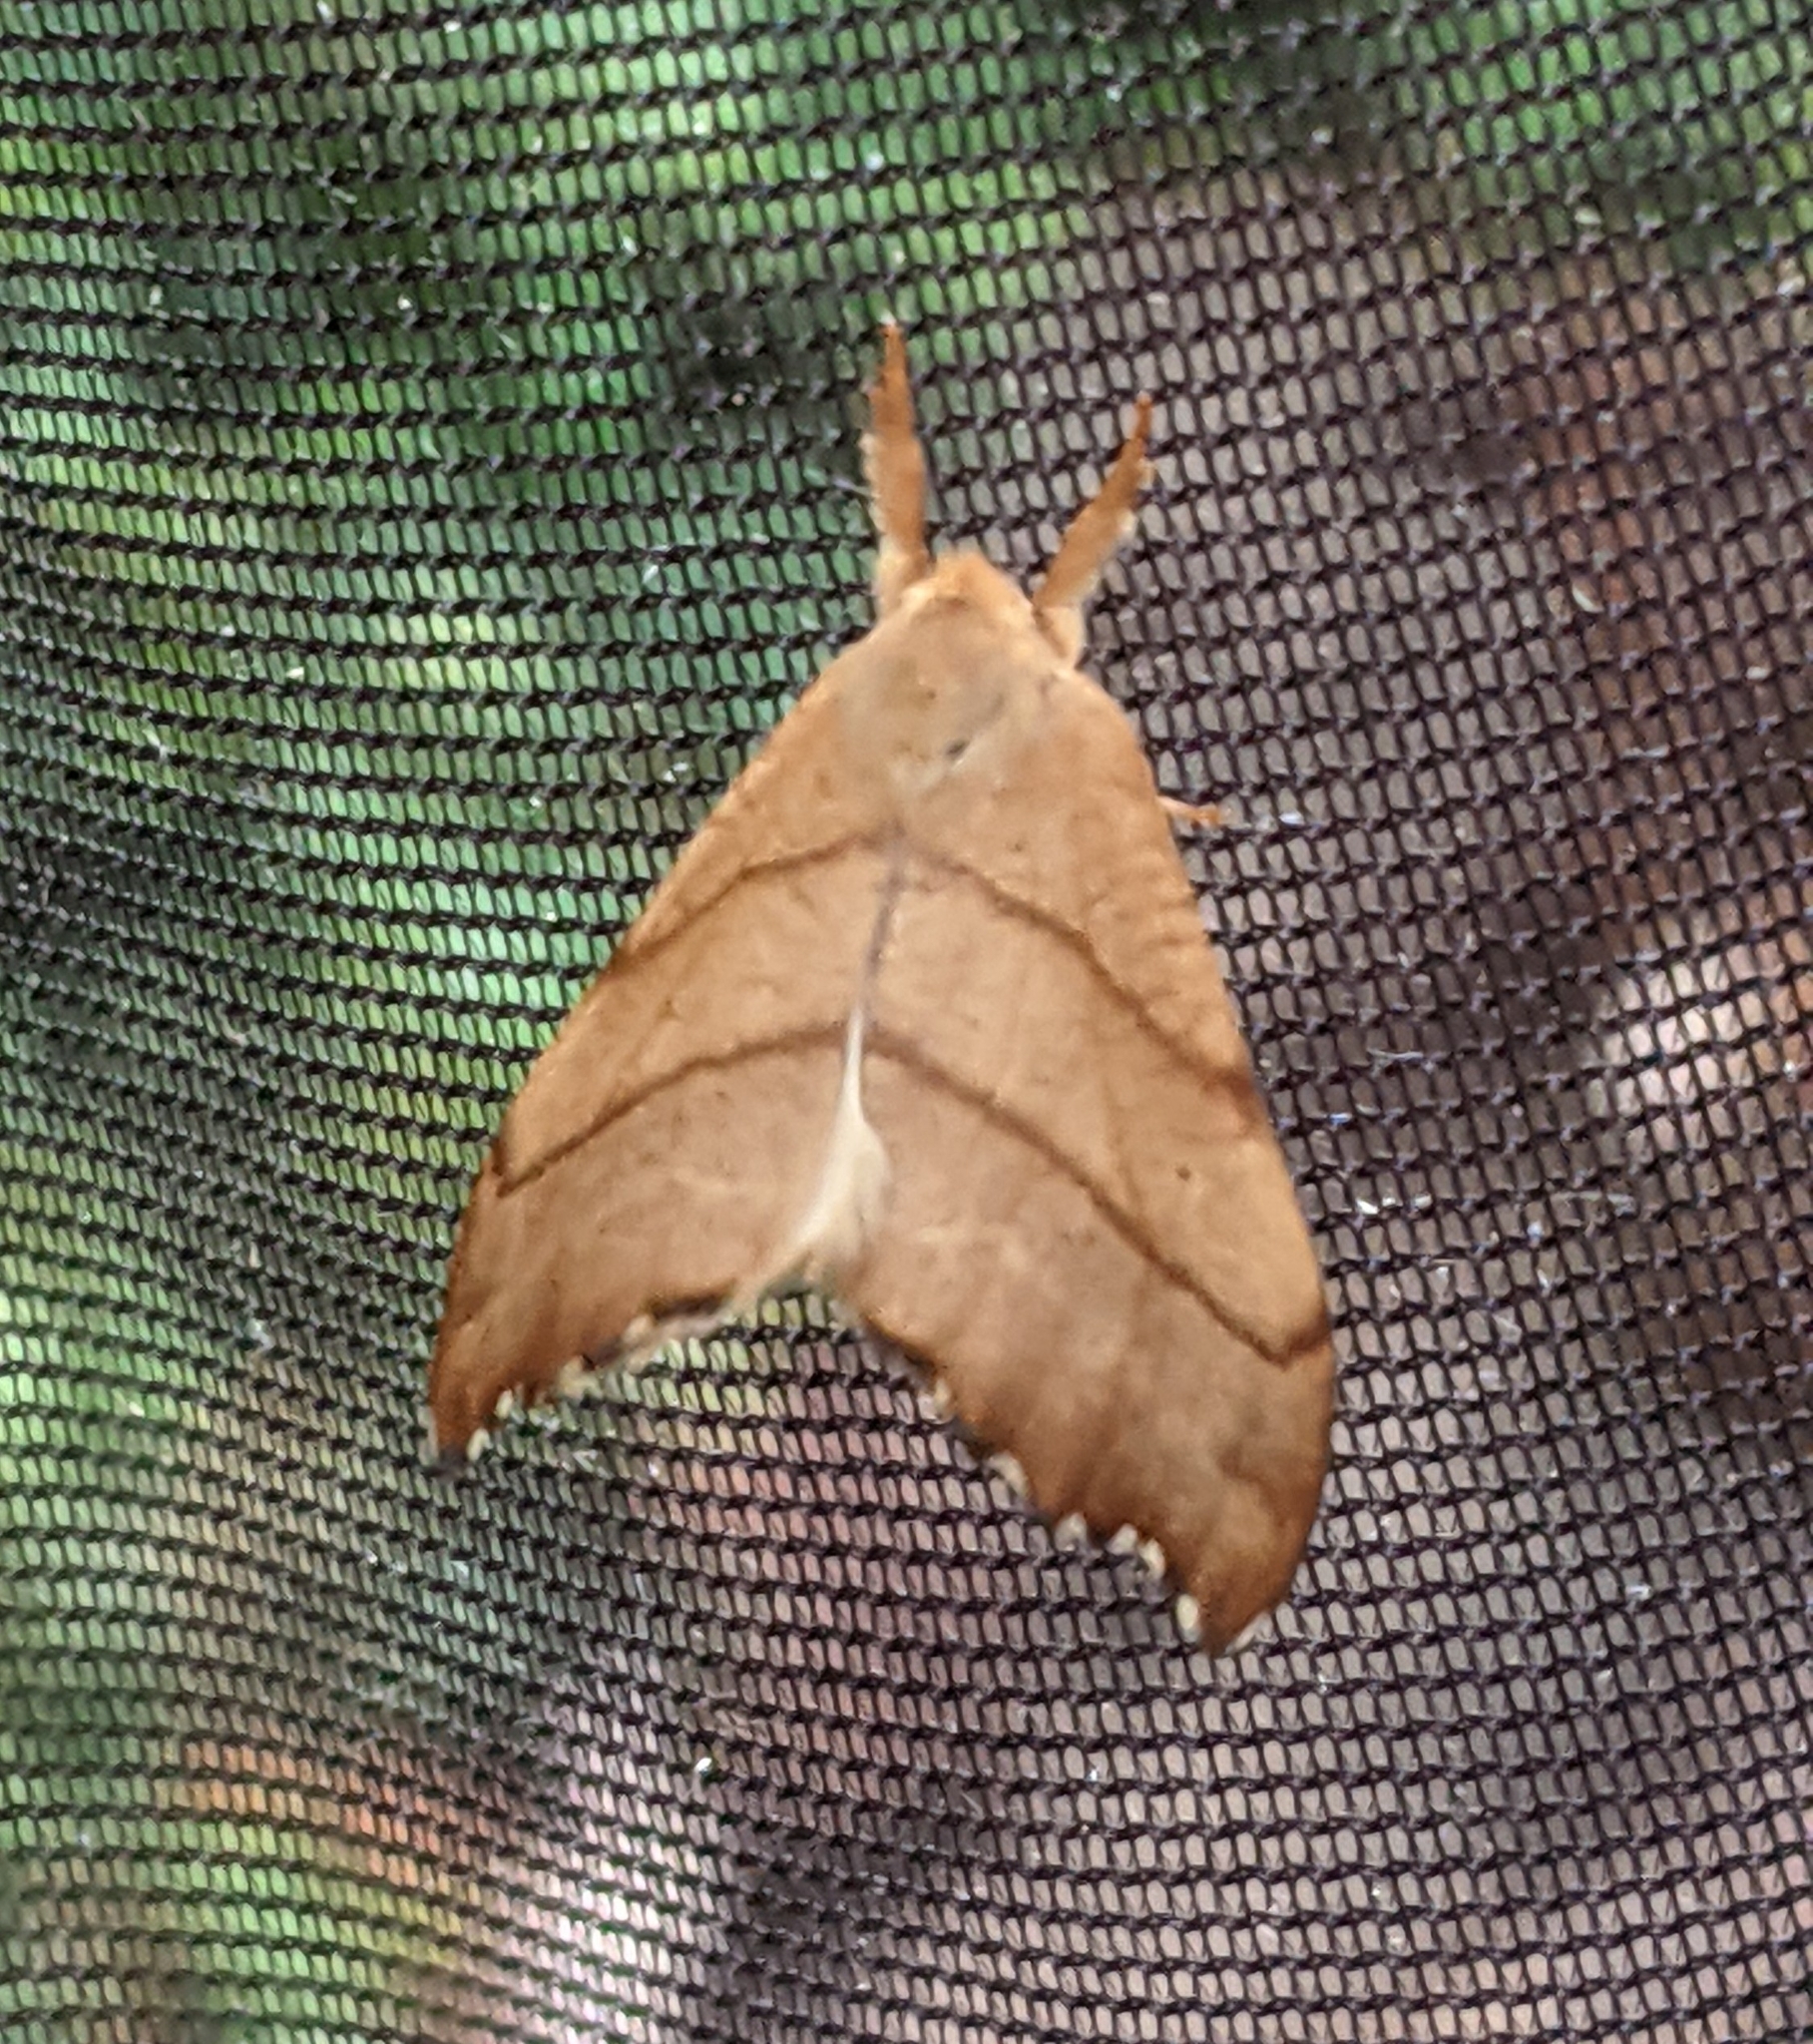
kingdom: Animalia
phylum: Arthropoda
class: Insecta
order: Lepidoptera
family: Drepanidae
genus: Falcaria
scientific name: Falcaria bilineata
